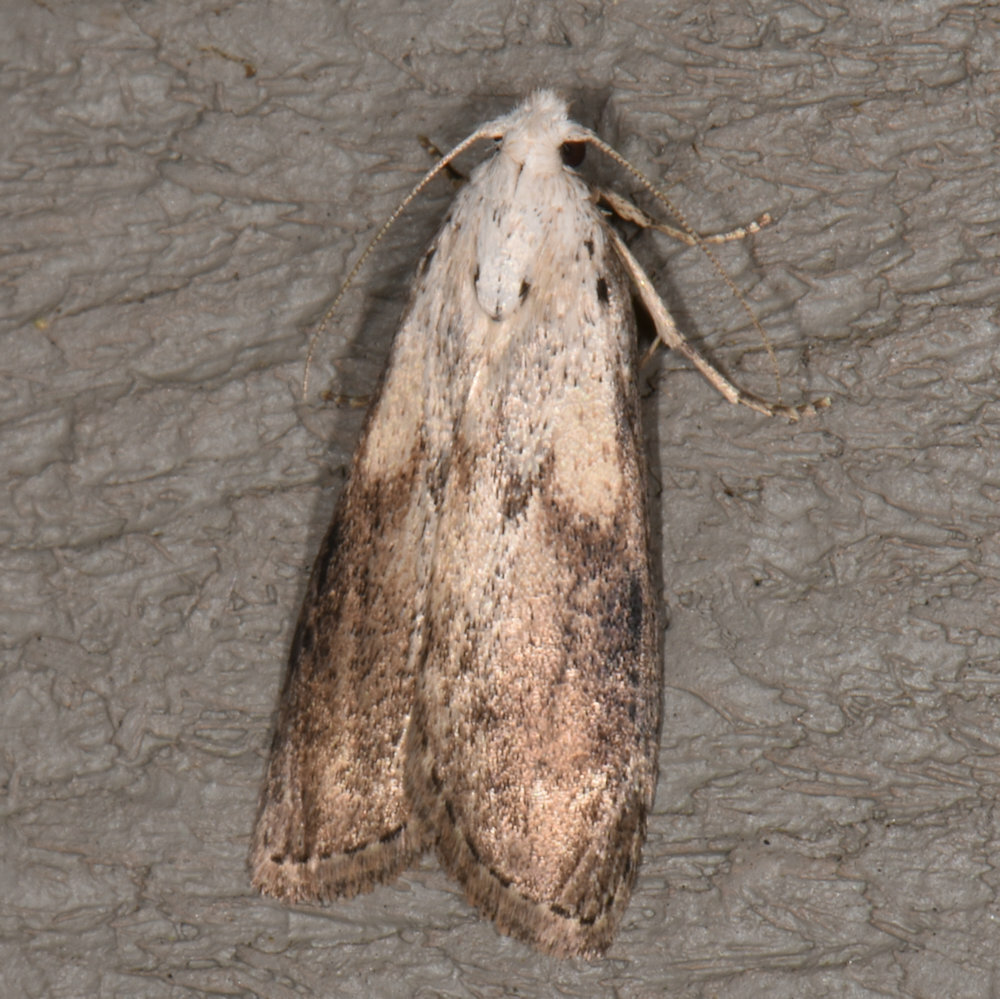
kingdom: Animalia
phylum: Arthropoda
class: Insecta
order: Lepidoptera
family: Pyralidae
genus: Aphomia
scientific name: Aphomia sociella
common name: Bee moth
